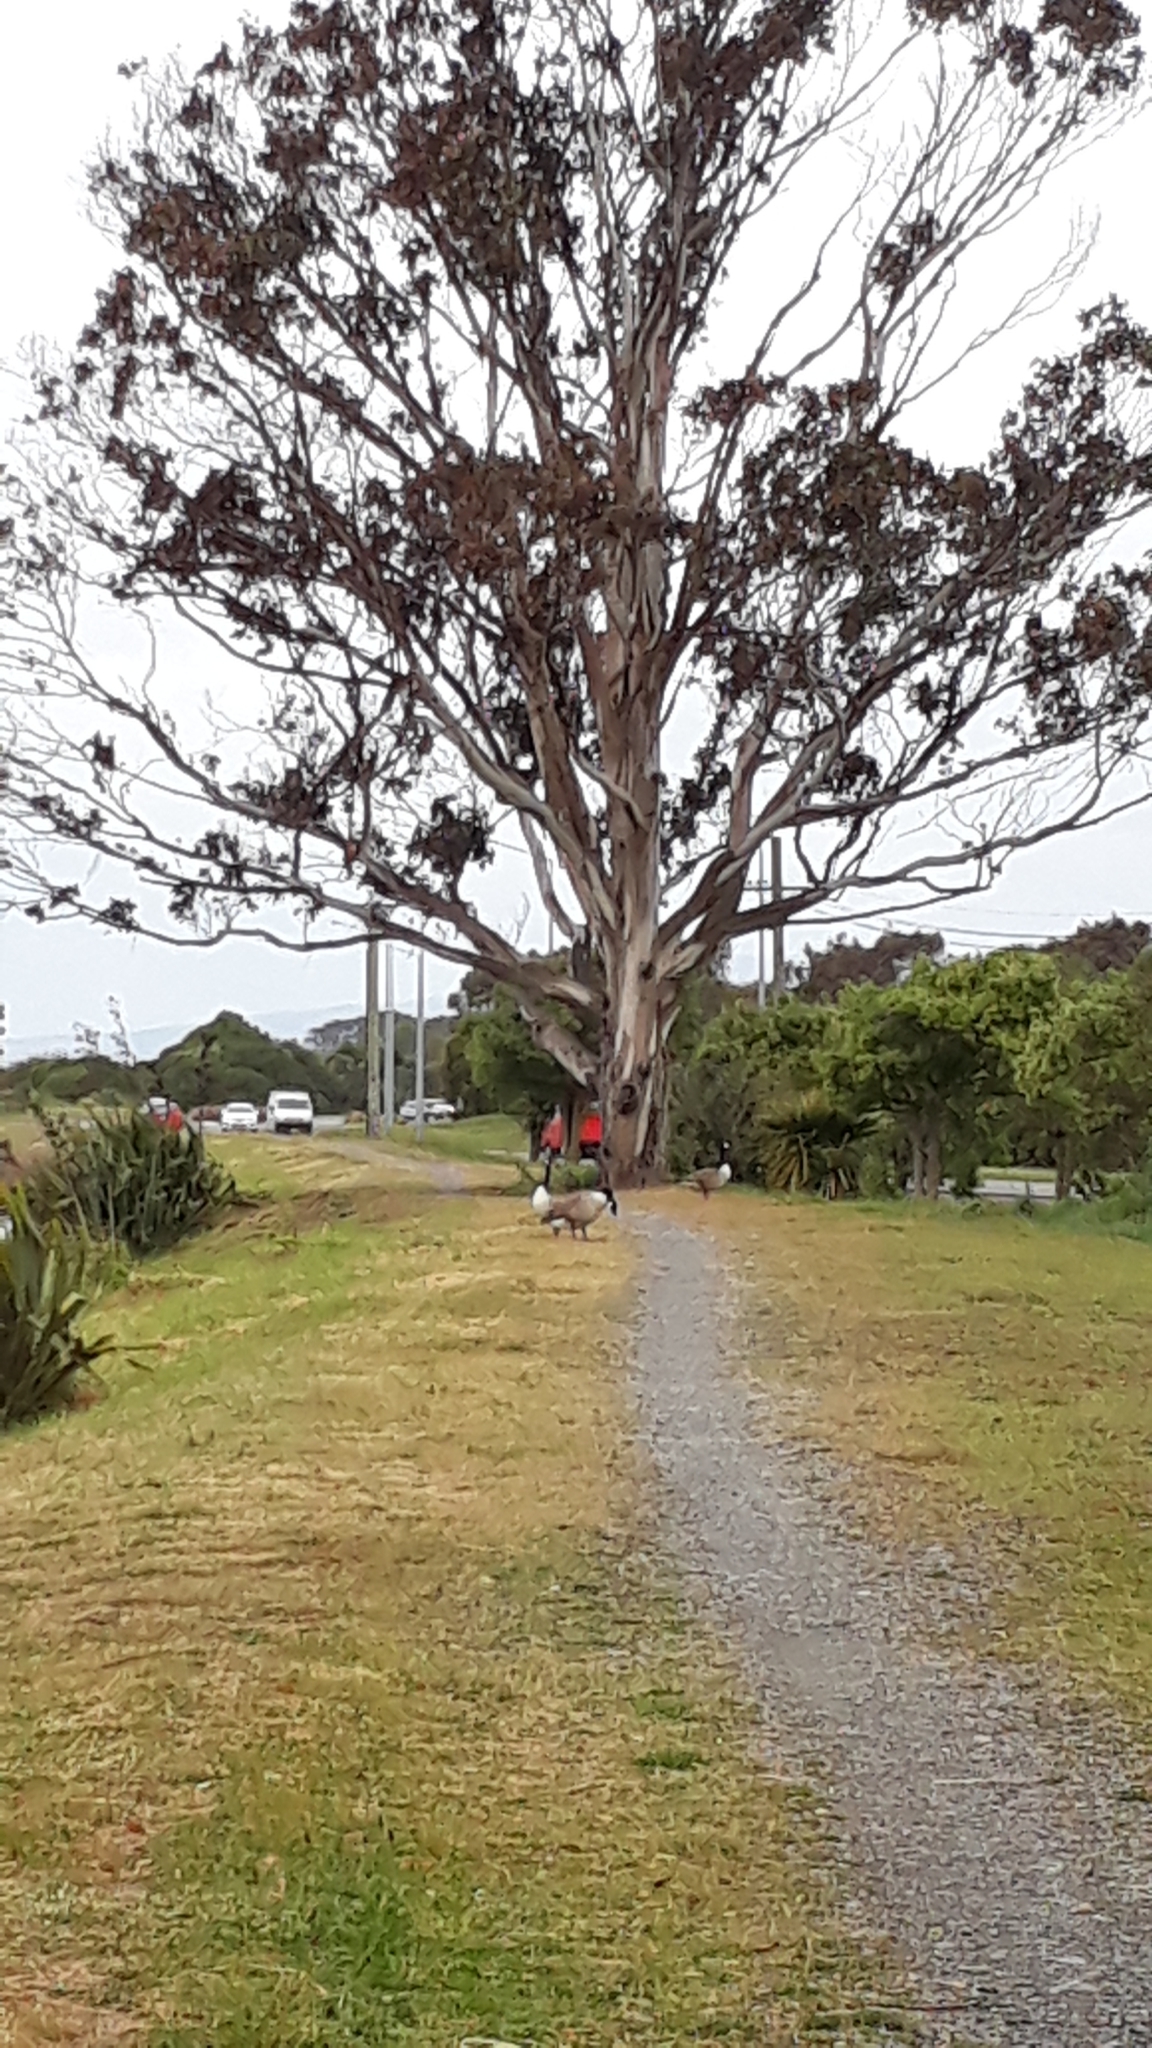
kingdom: Animalia
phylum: Chordata
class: Aves
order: Anseriformes
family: Anatidae
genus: Branta
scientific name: Branta canadensis
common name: Canada goose
